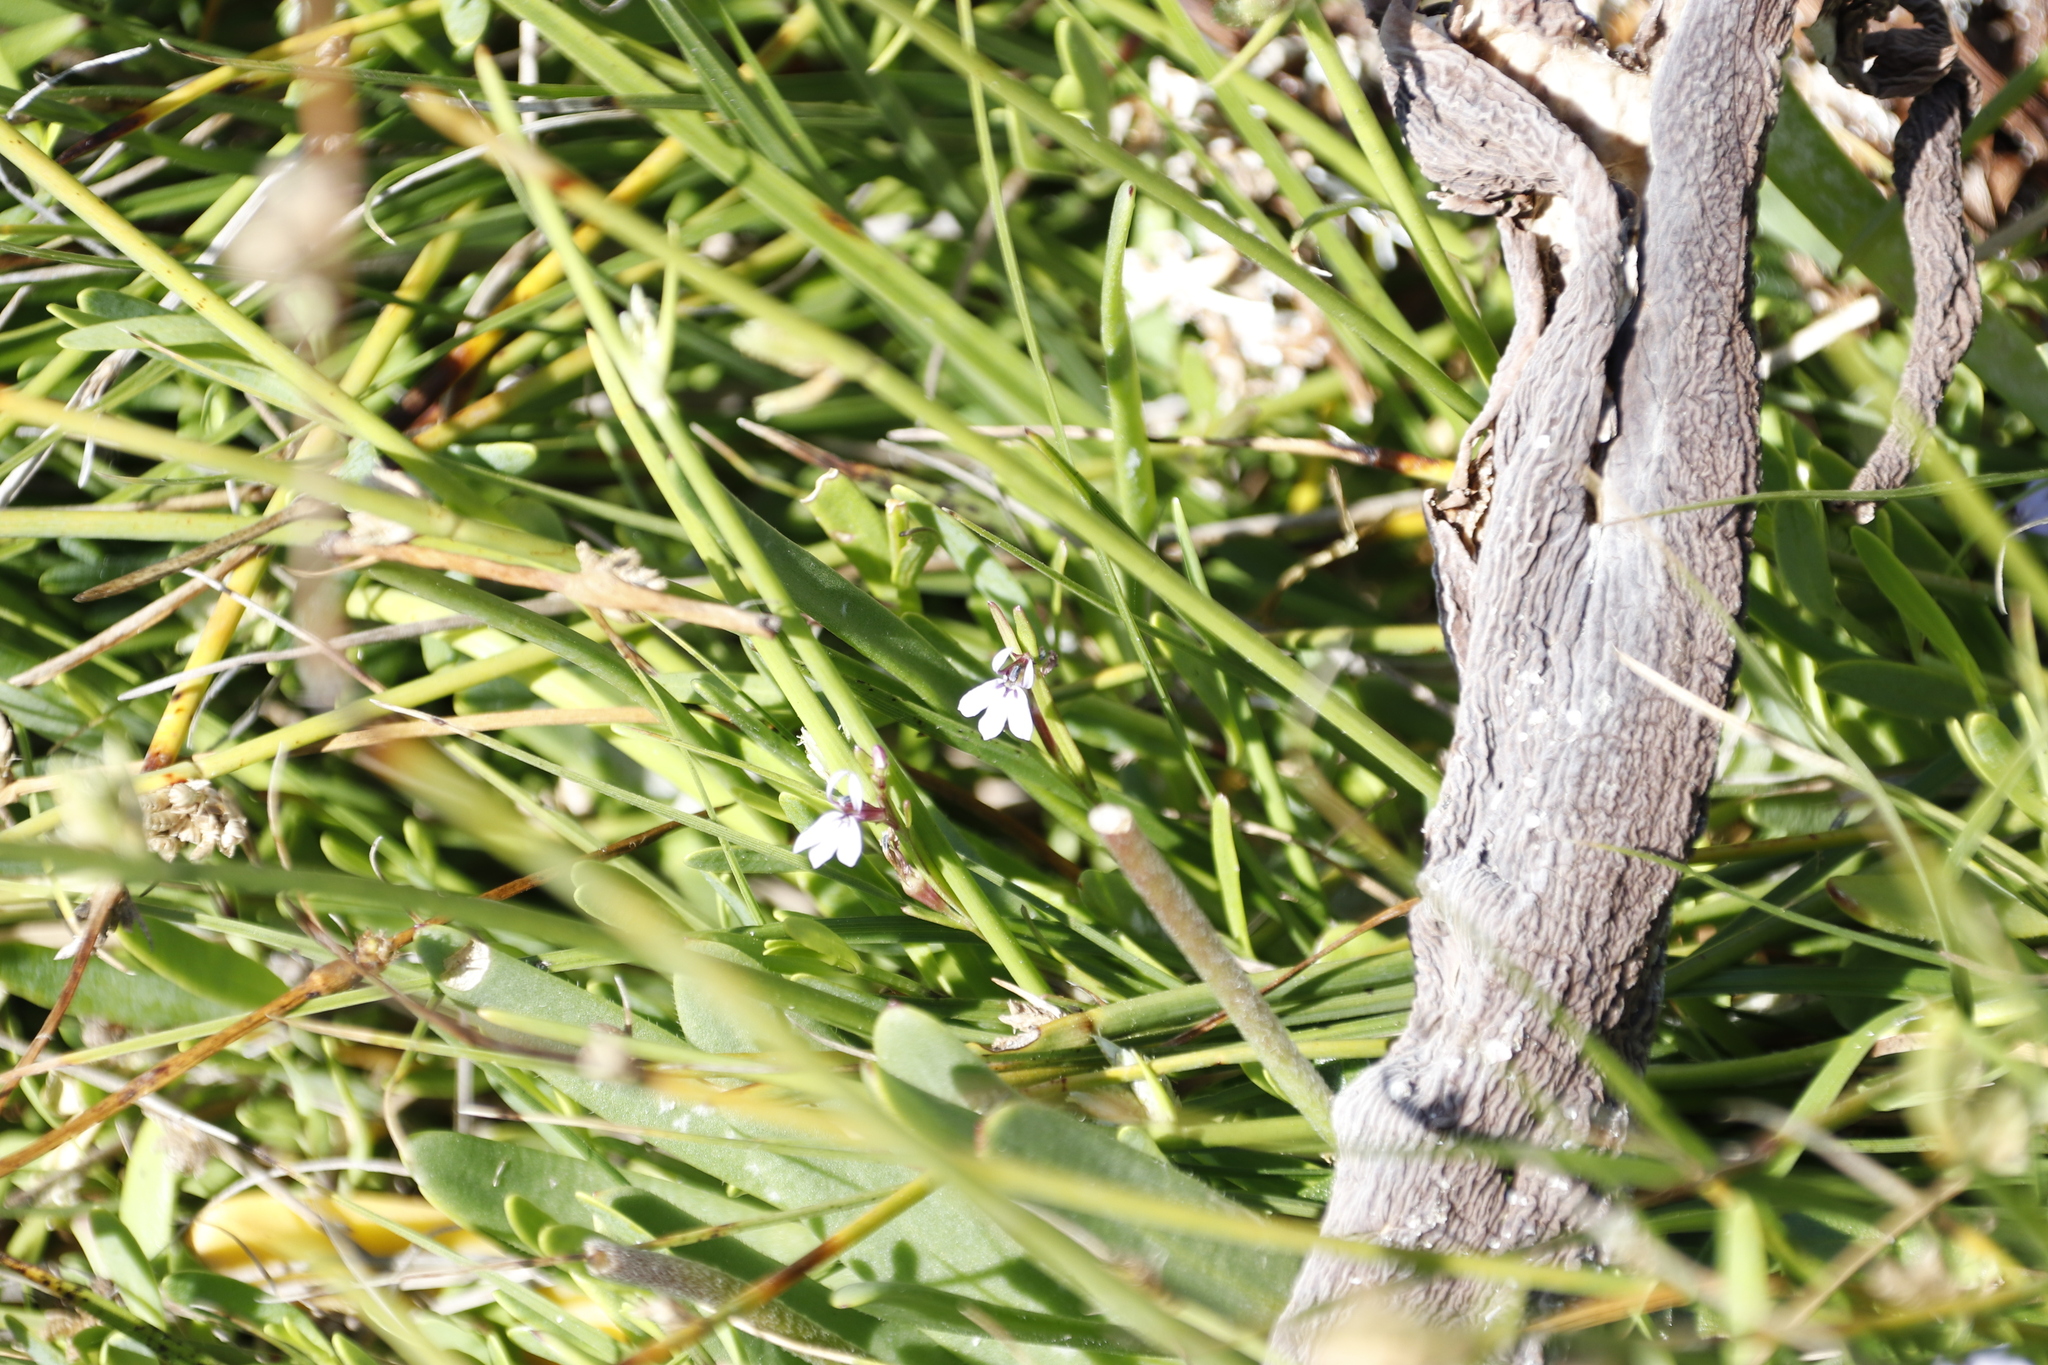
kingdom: Plantae
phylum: Tracheophyta
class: Magnoliopsida
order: Asterales
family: Campanulaceae
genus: Lobelia
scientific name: Lobelia anceps
